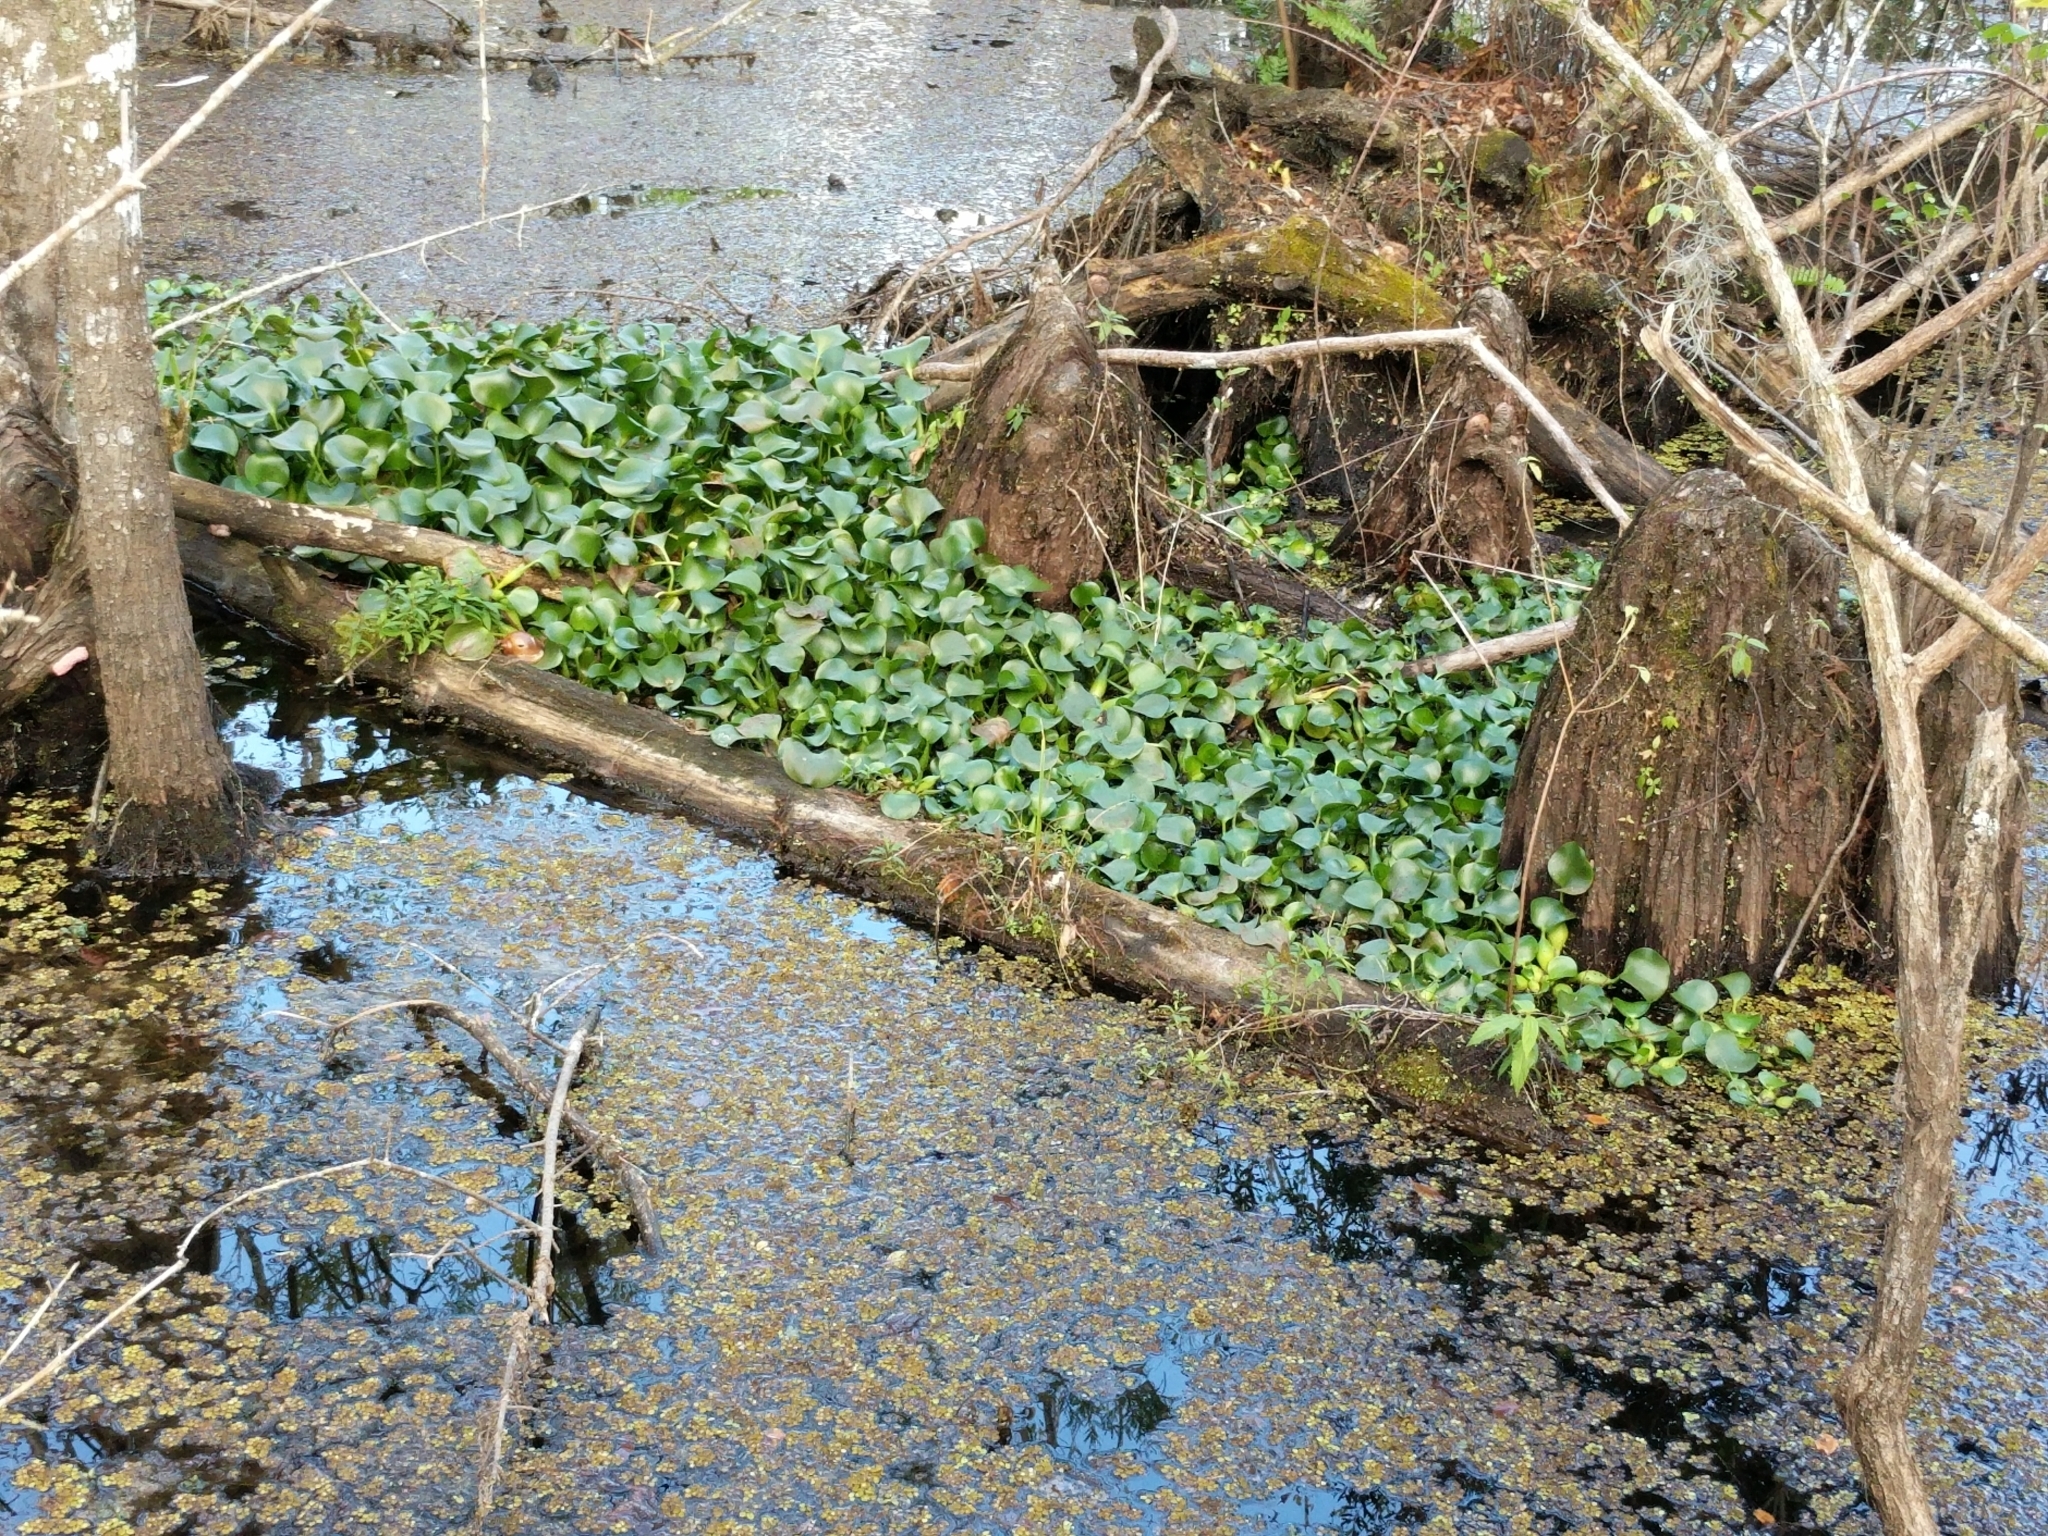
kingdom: Plantae
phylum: Tracheophyta
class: Liliopsida
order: Commelinales
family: Pontederiaceae
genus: Pontederia
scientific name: Pontederia crassipes
